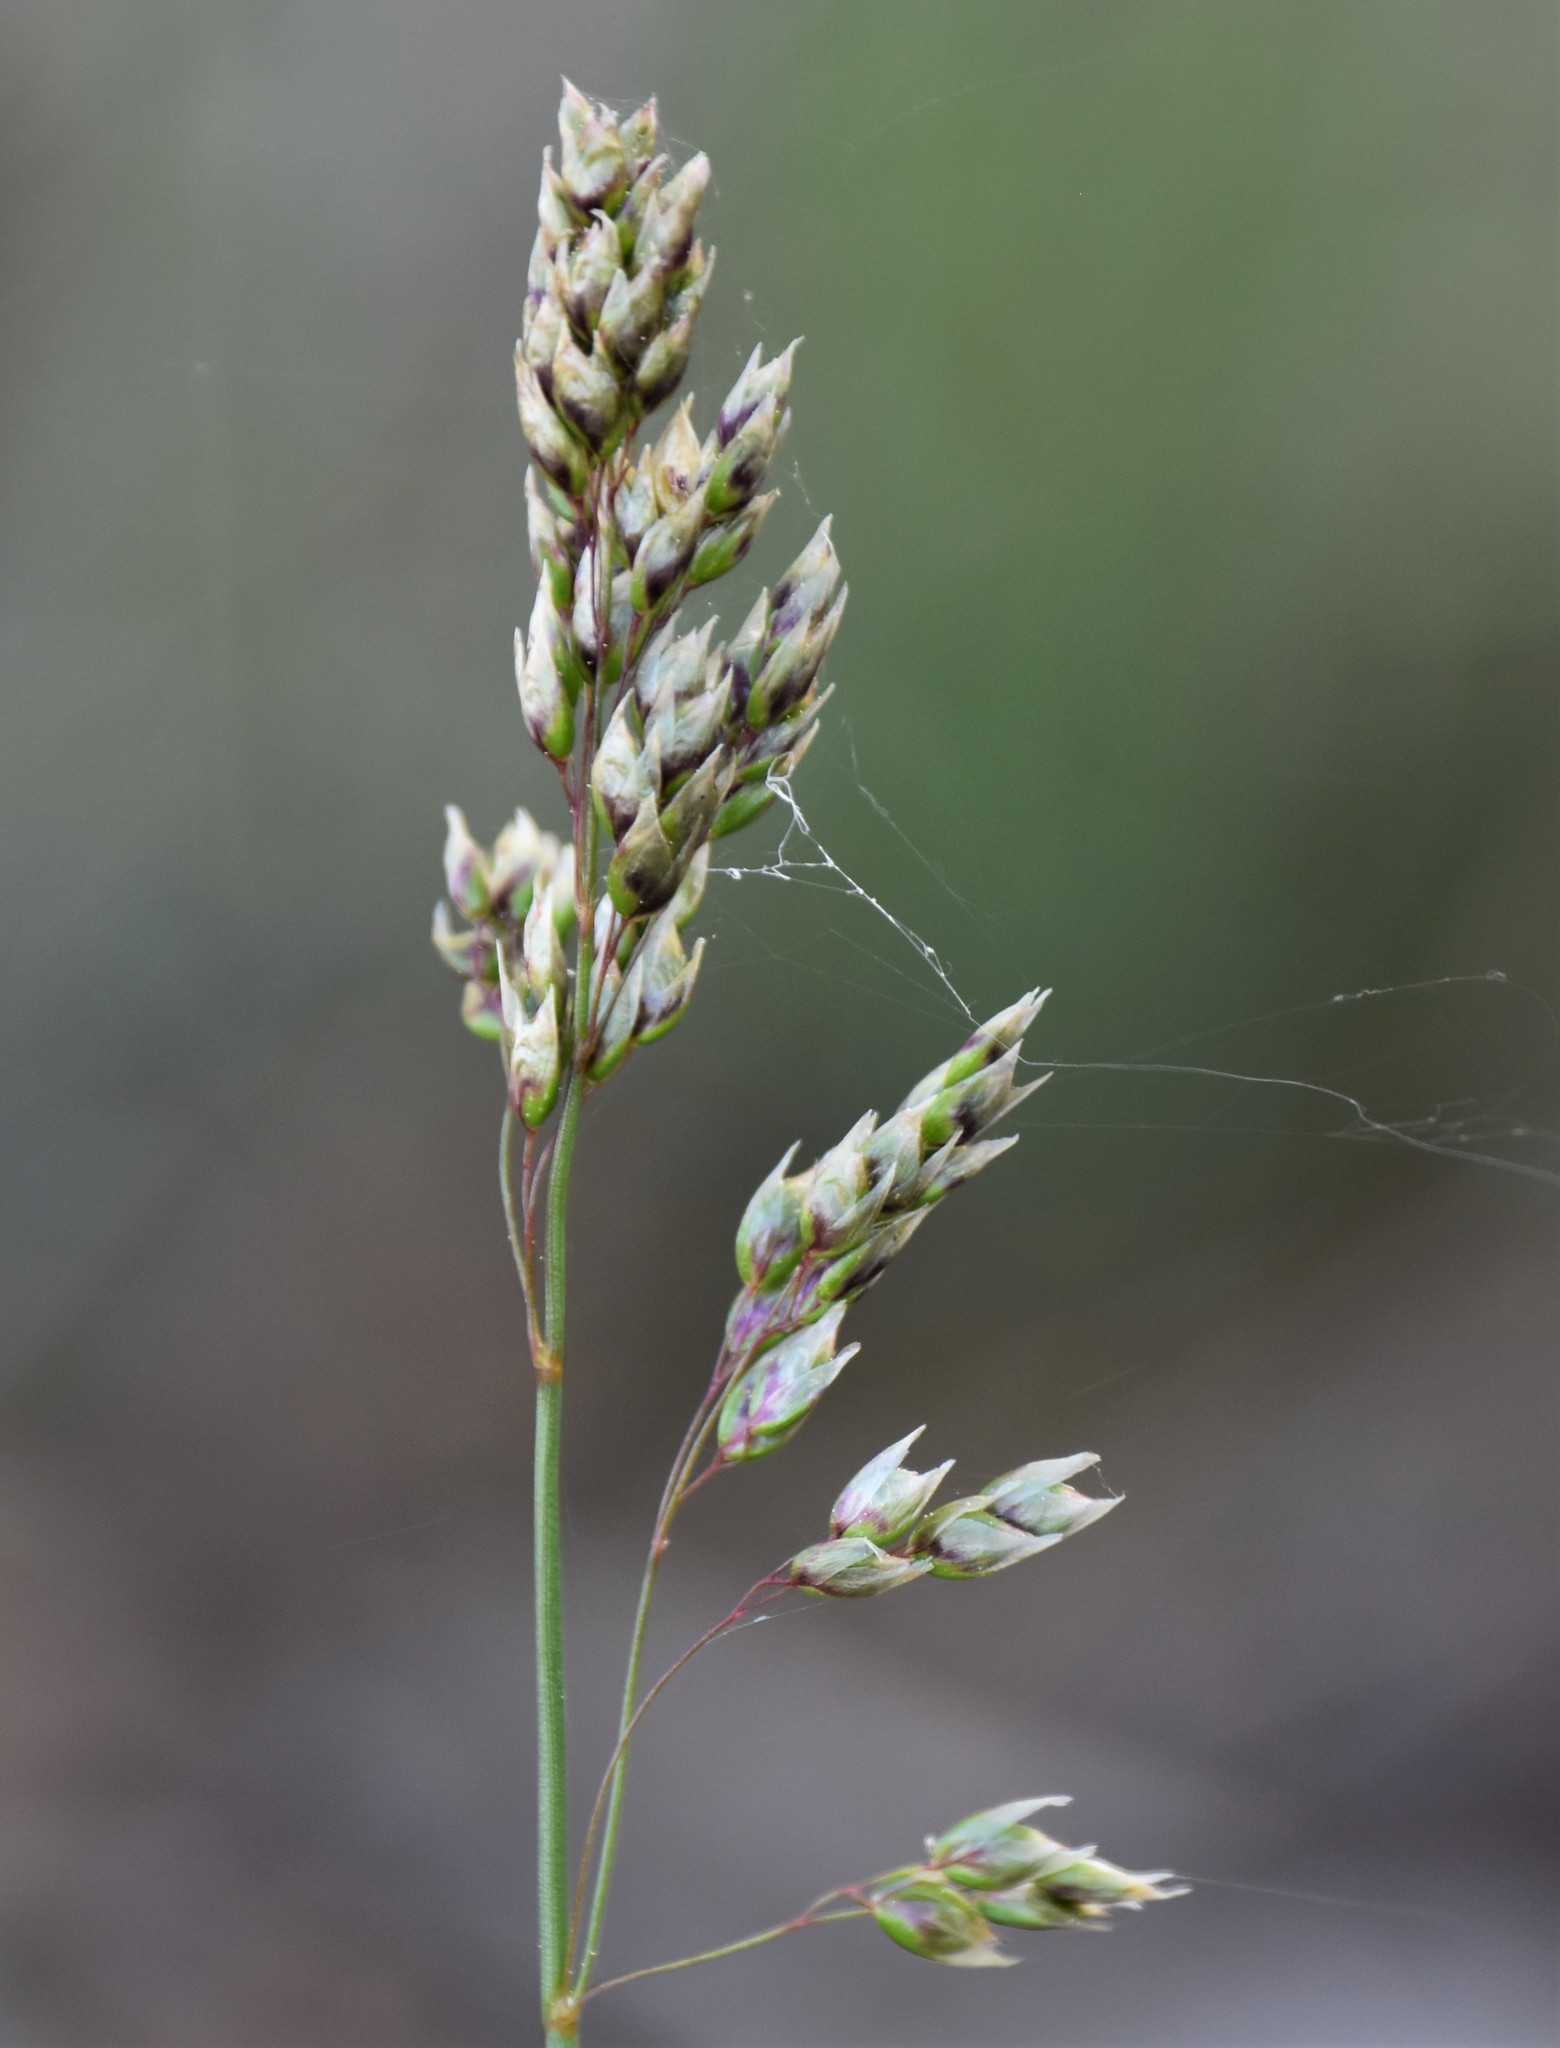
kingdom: Plantae
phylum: Tracheophyta
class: Liliopsida
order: Poales
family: Poaceae
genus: Anthoxanthum
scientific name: Anthoxanthum nitens
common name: Holy grass
